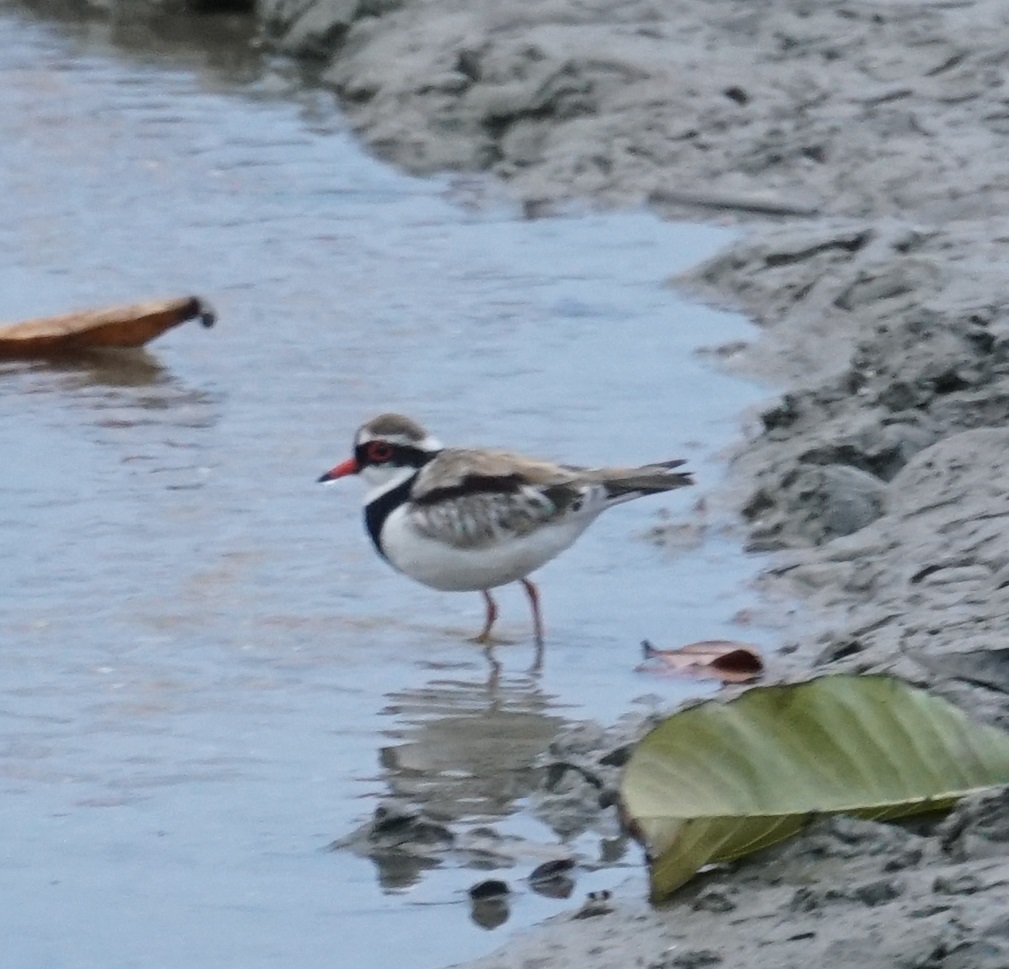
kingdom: Animalia
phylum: Chordata
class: Aves
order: Charadriiformes
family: Charadriidae
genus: Elseyornis
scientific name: Elseyornis melanops
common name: Black-fronted dotterel
